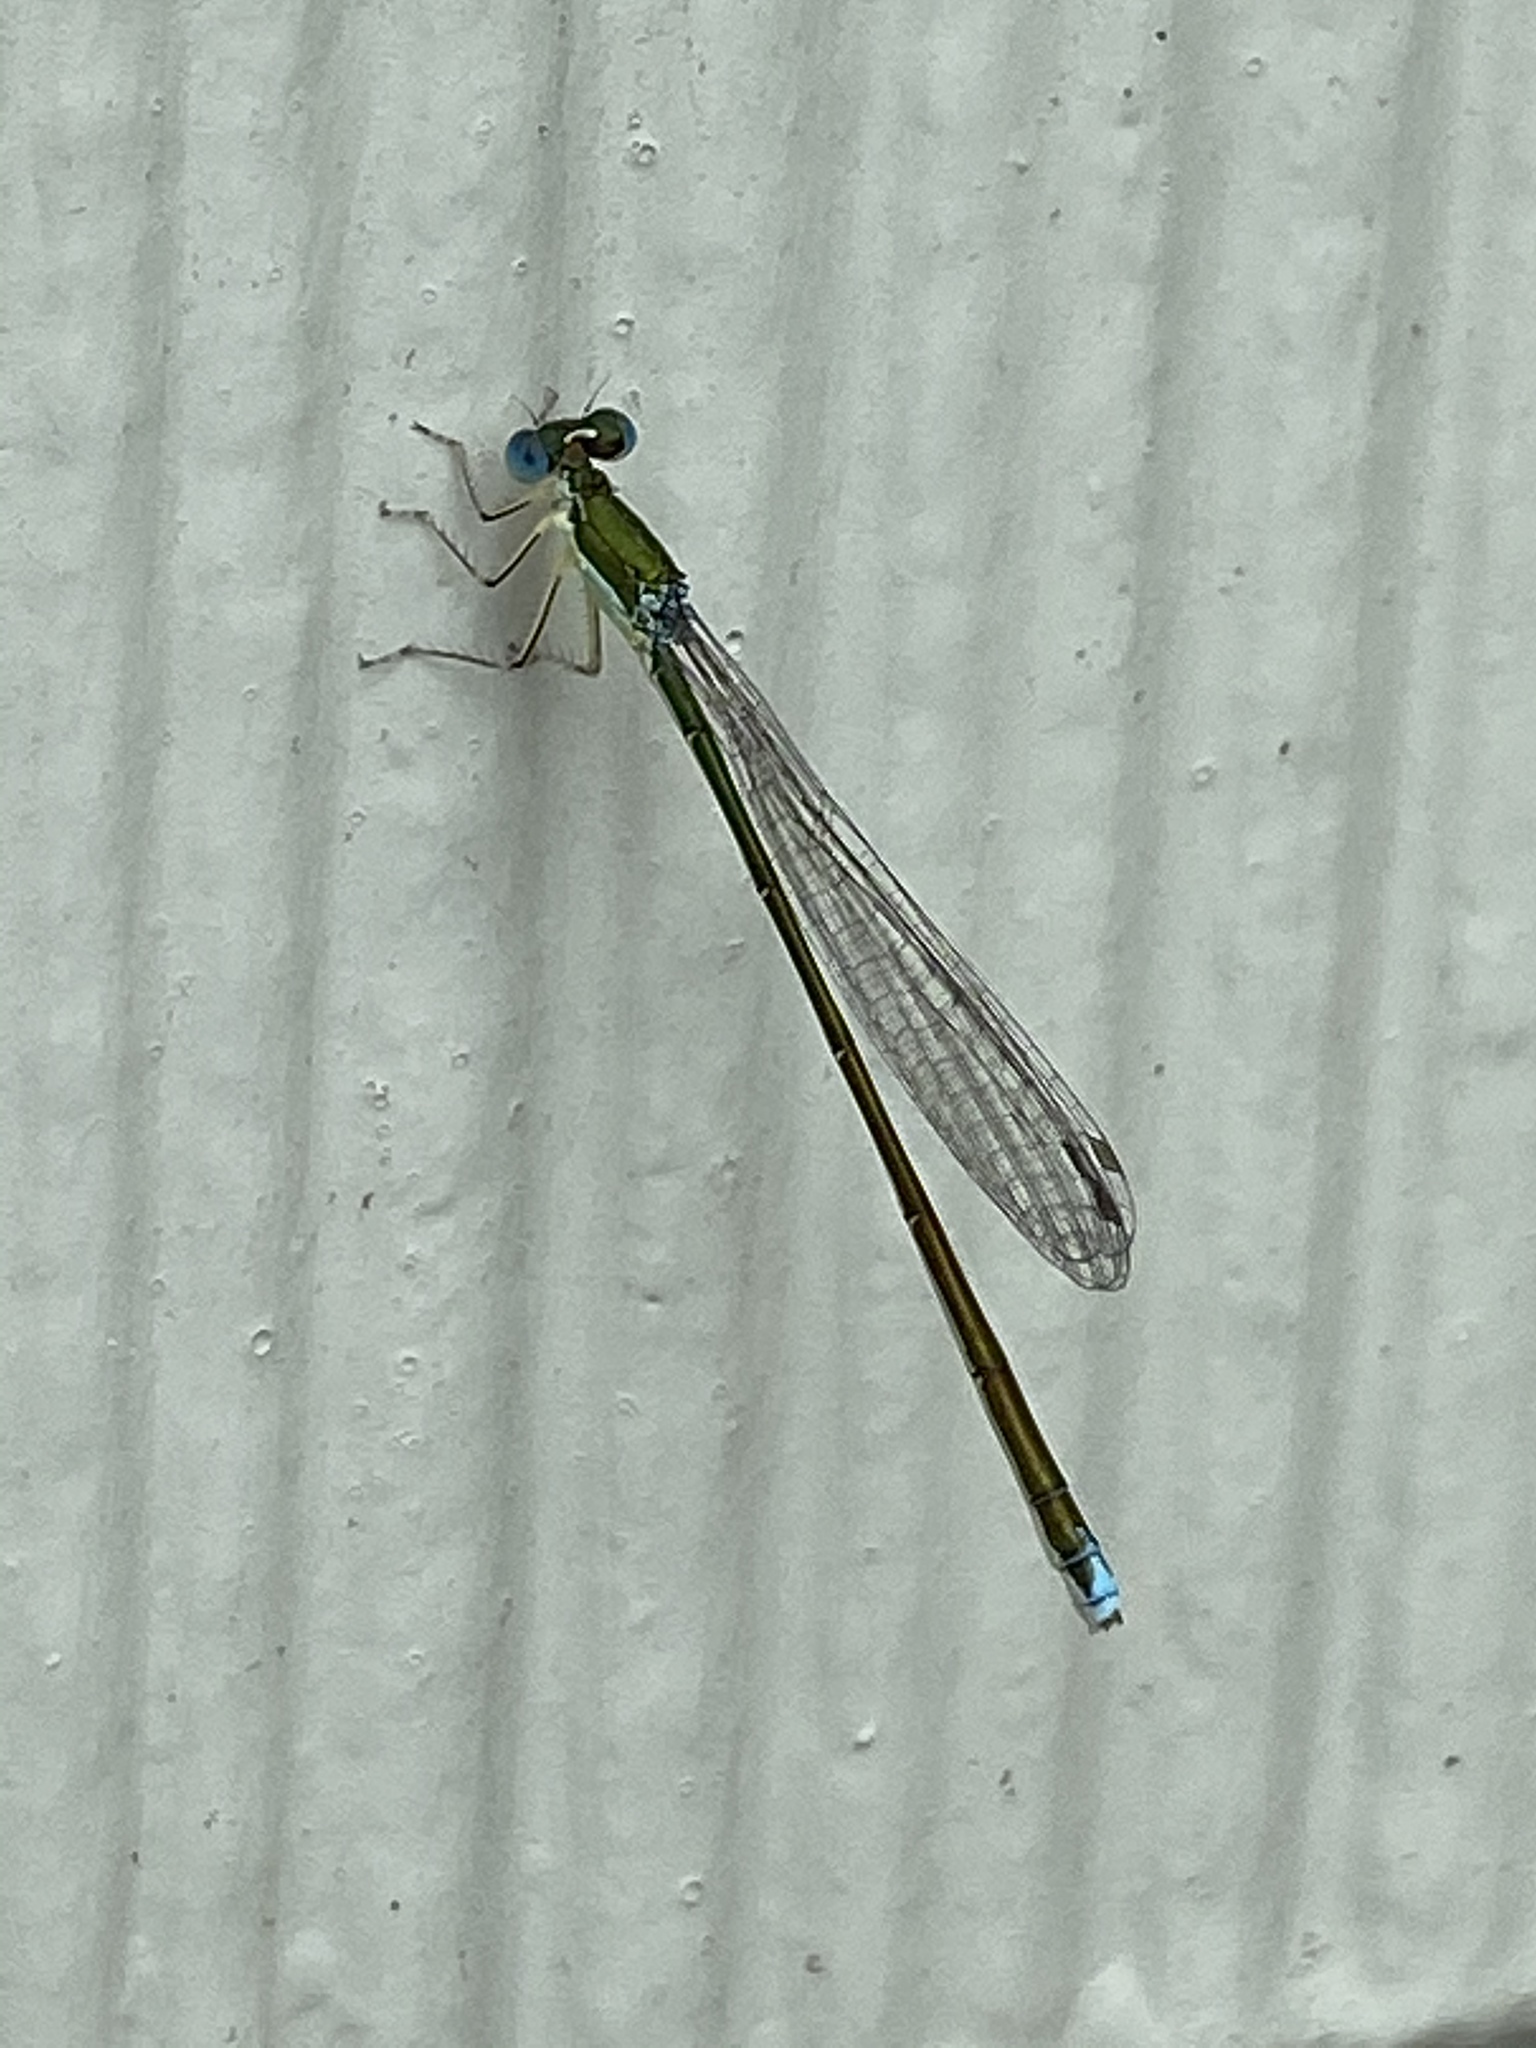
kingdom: Animalia
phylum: Arthropoda
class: Insecta
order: Odonata
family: Coenagrionidae
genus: Nehalennia
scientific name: Nehalennia irene
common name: Sedge sprite
